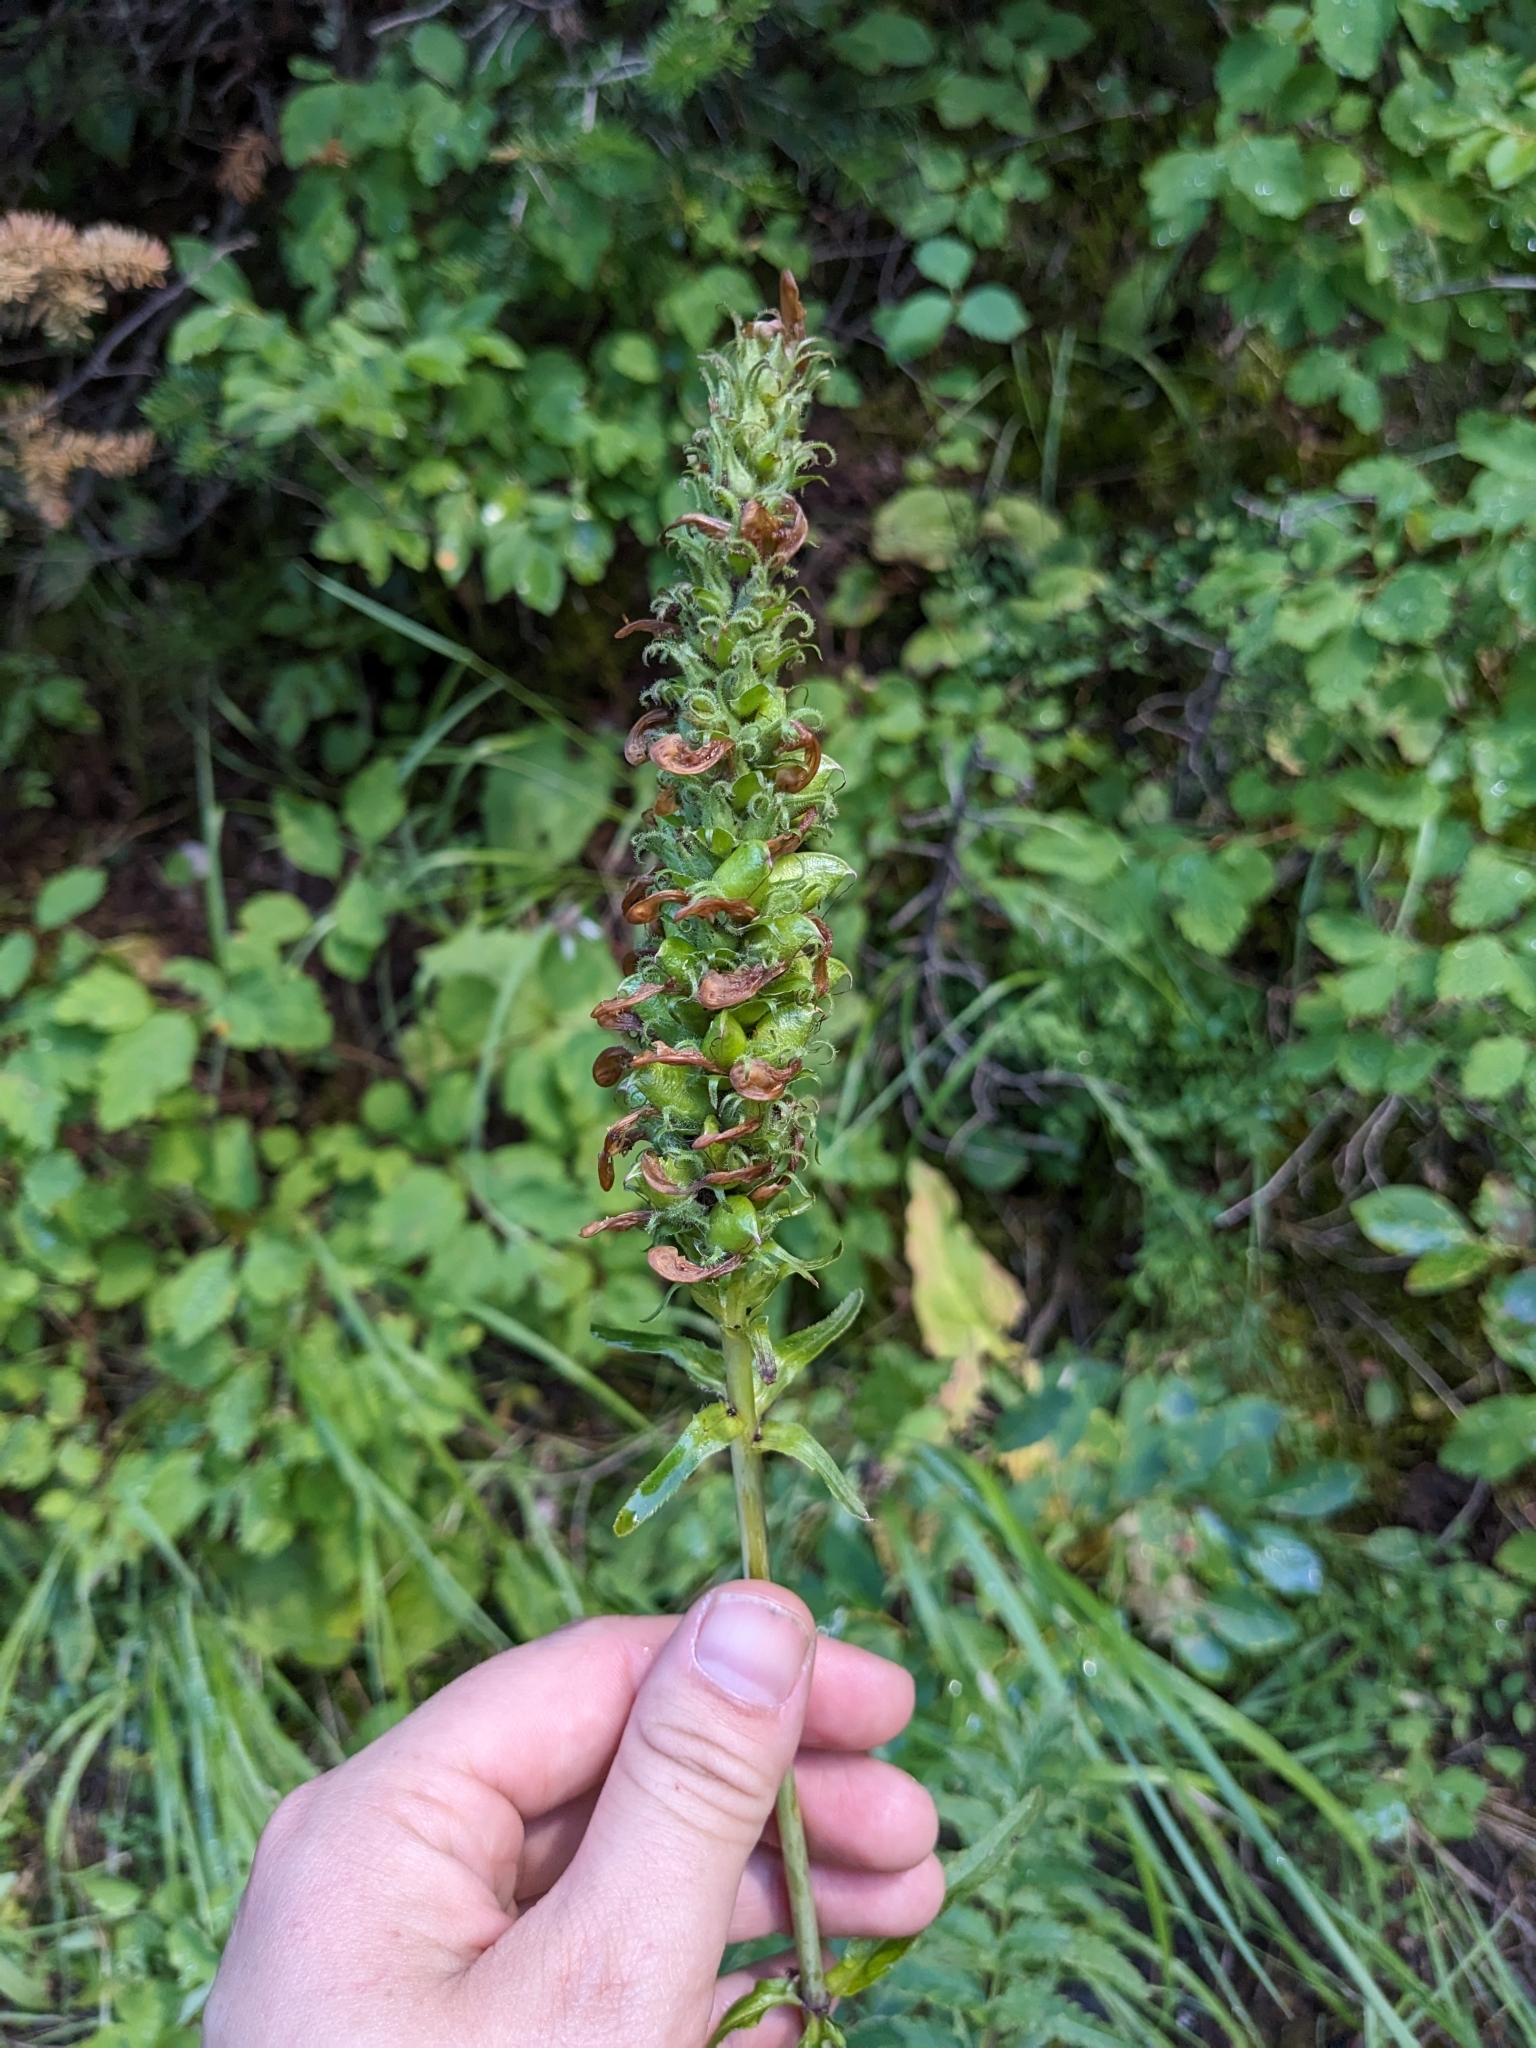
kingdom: Plantae
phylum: Tracheophyta
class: Magnoliopsida
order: Lamiales
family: Orobanchaceae
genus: Pedicularis
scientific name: Pedicularis bracteosa
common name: Bracted lousewort
